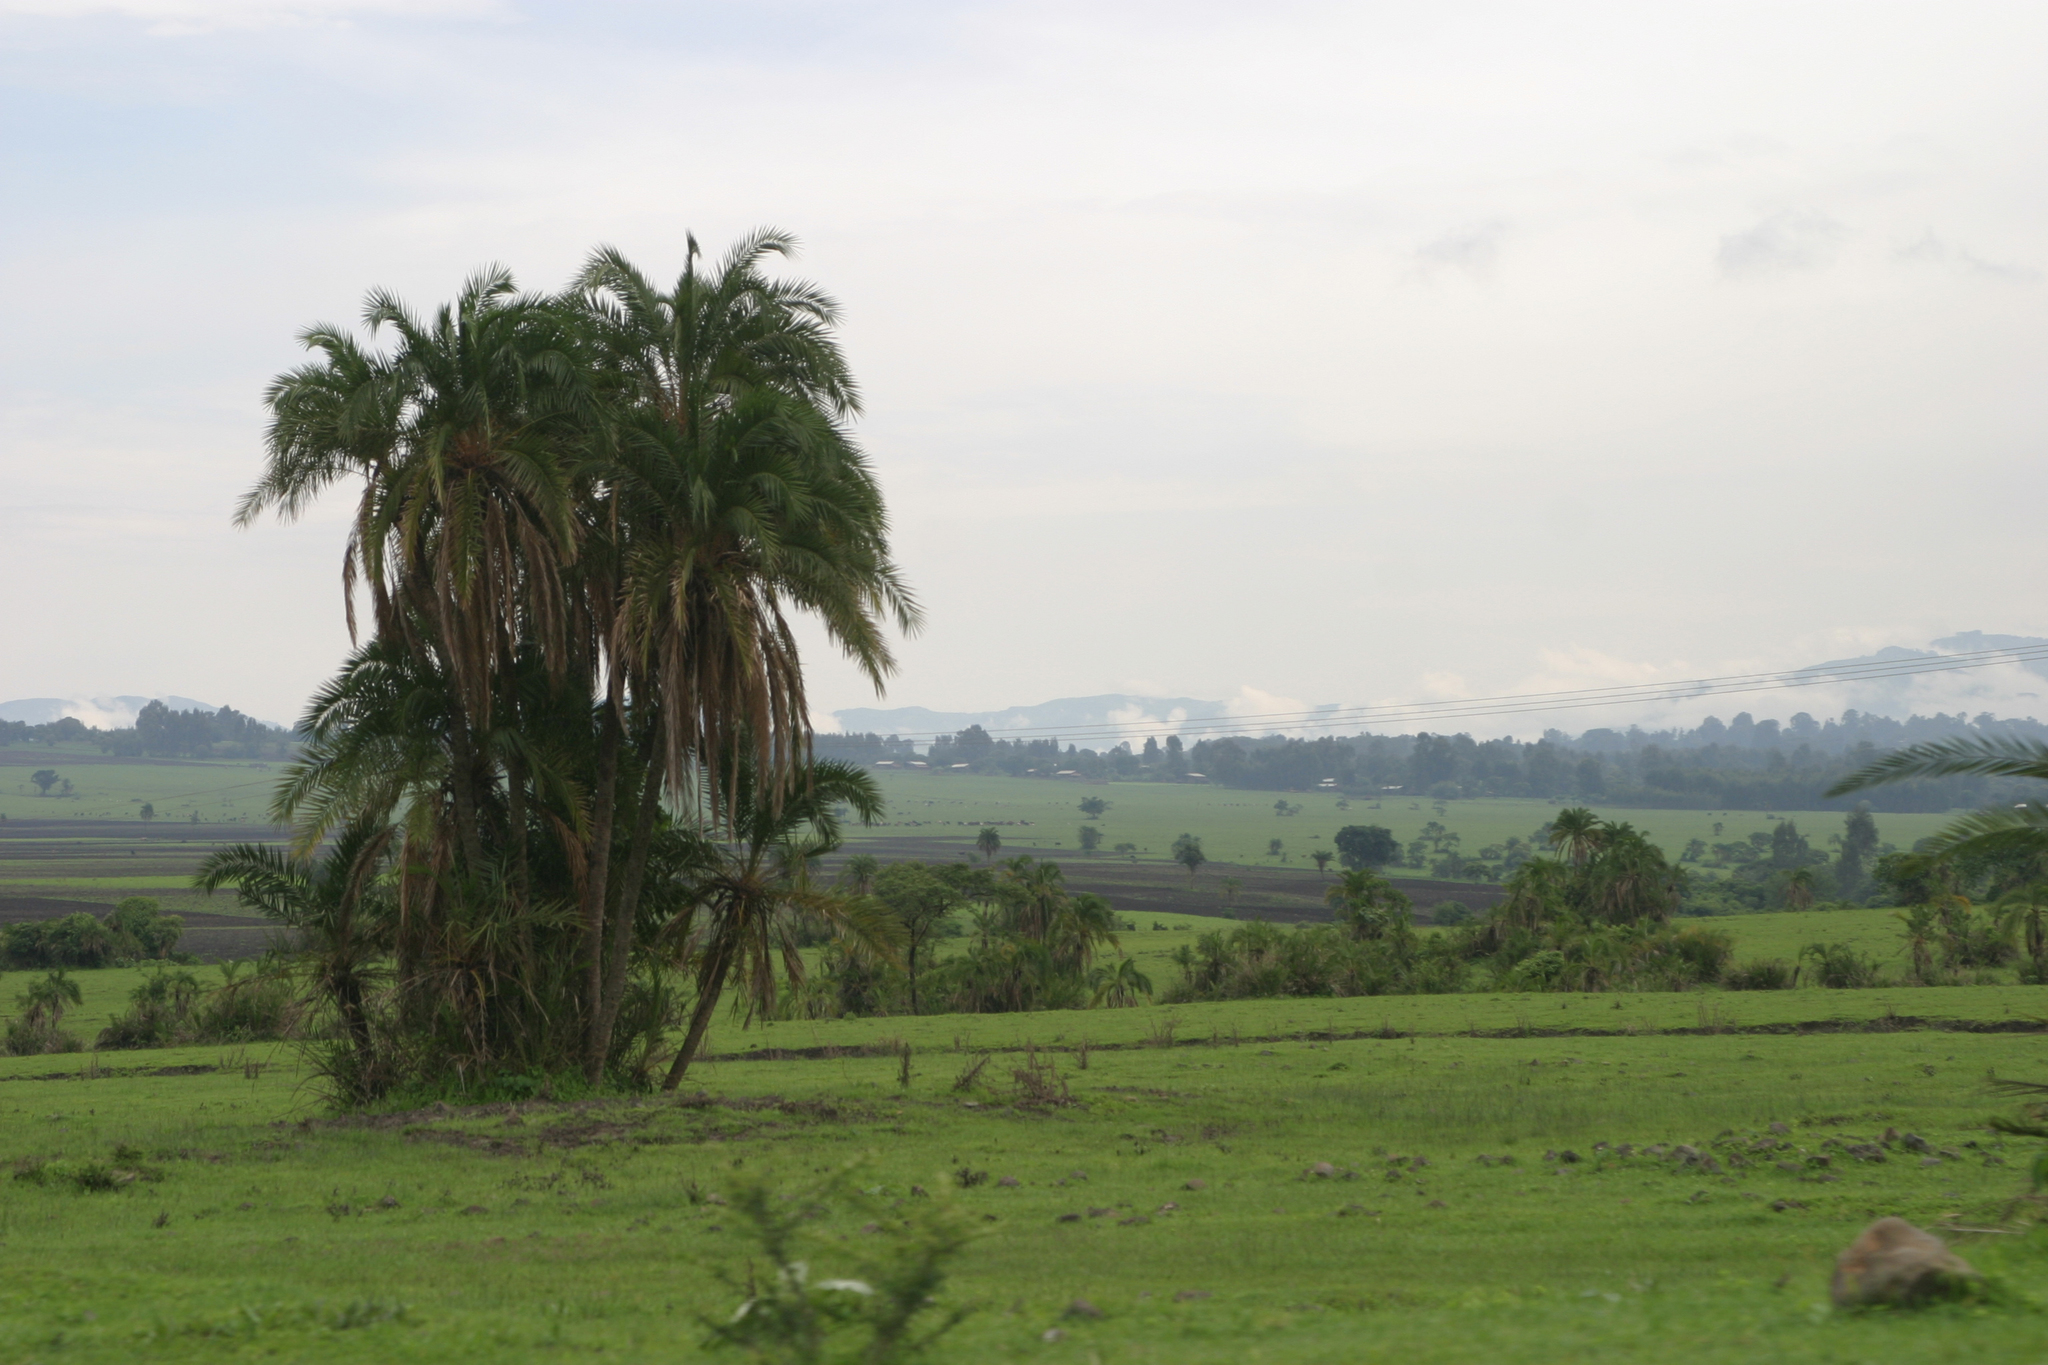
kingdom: Plantae
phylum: Tracheophyta
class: Liliopsida
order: Arecales
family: Arecaceae
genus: Phoenix
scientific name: Phoenix reclinata
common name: Senegal date palm
